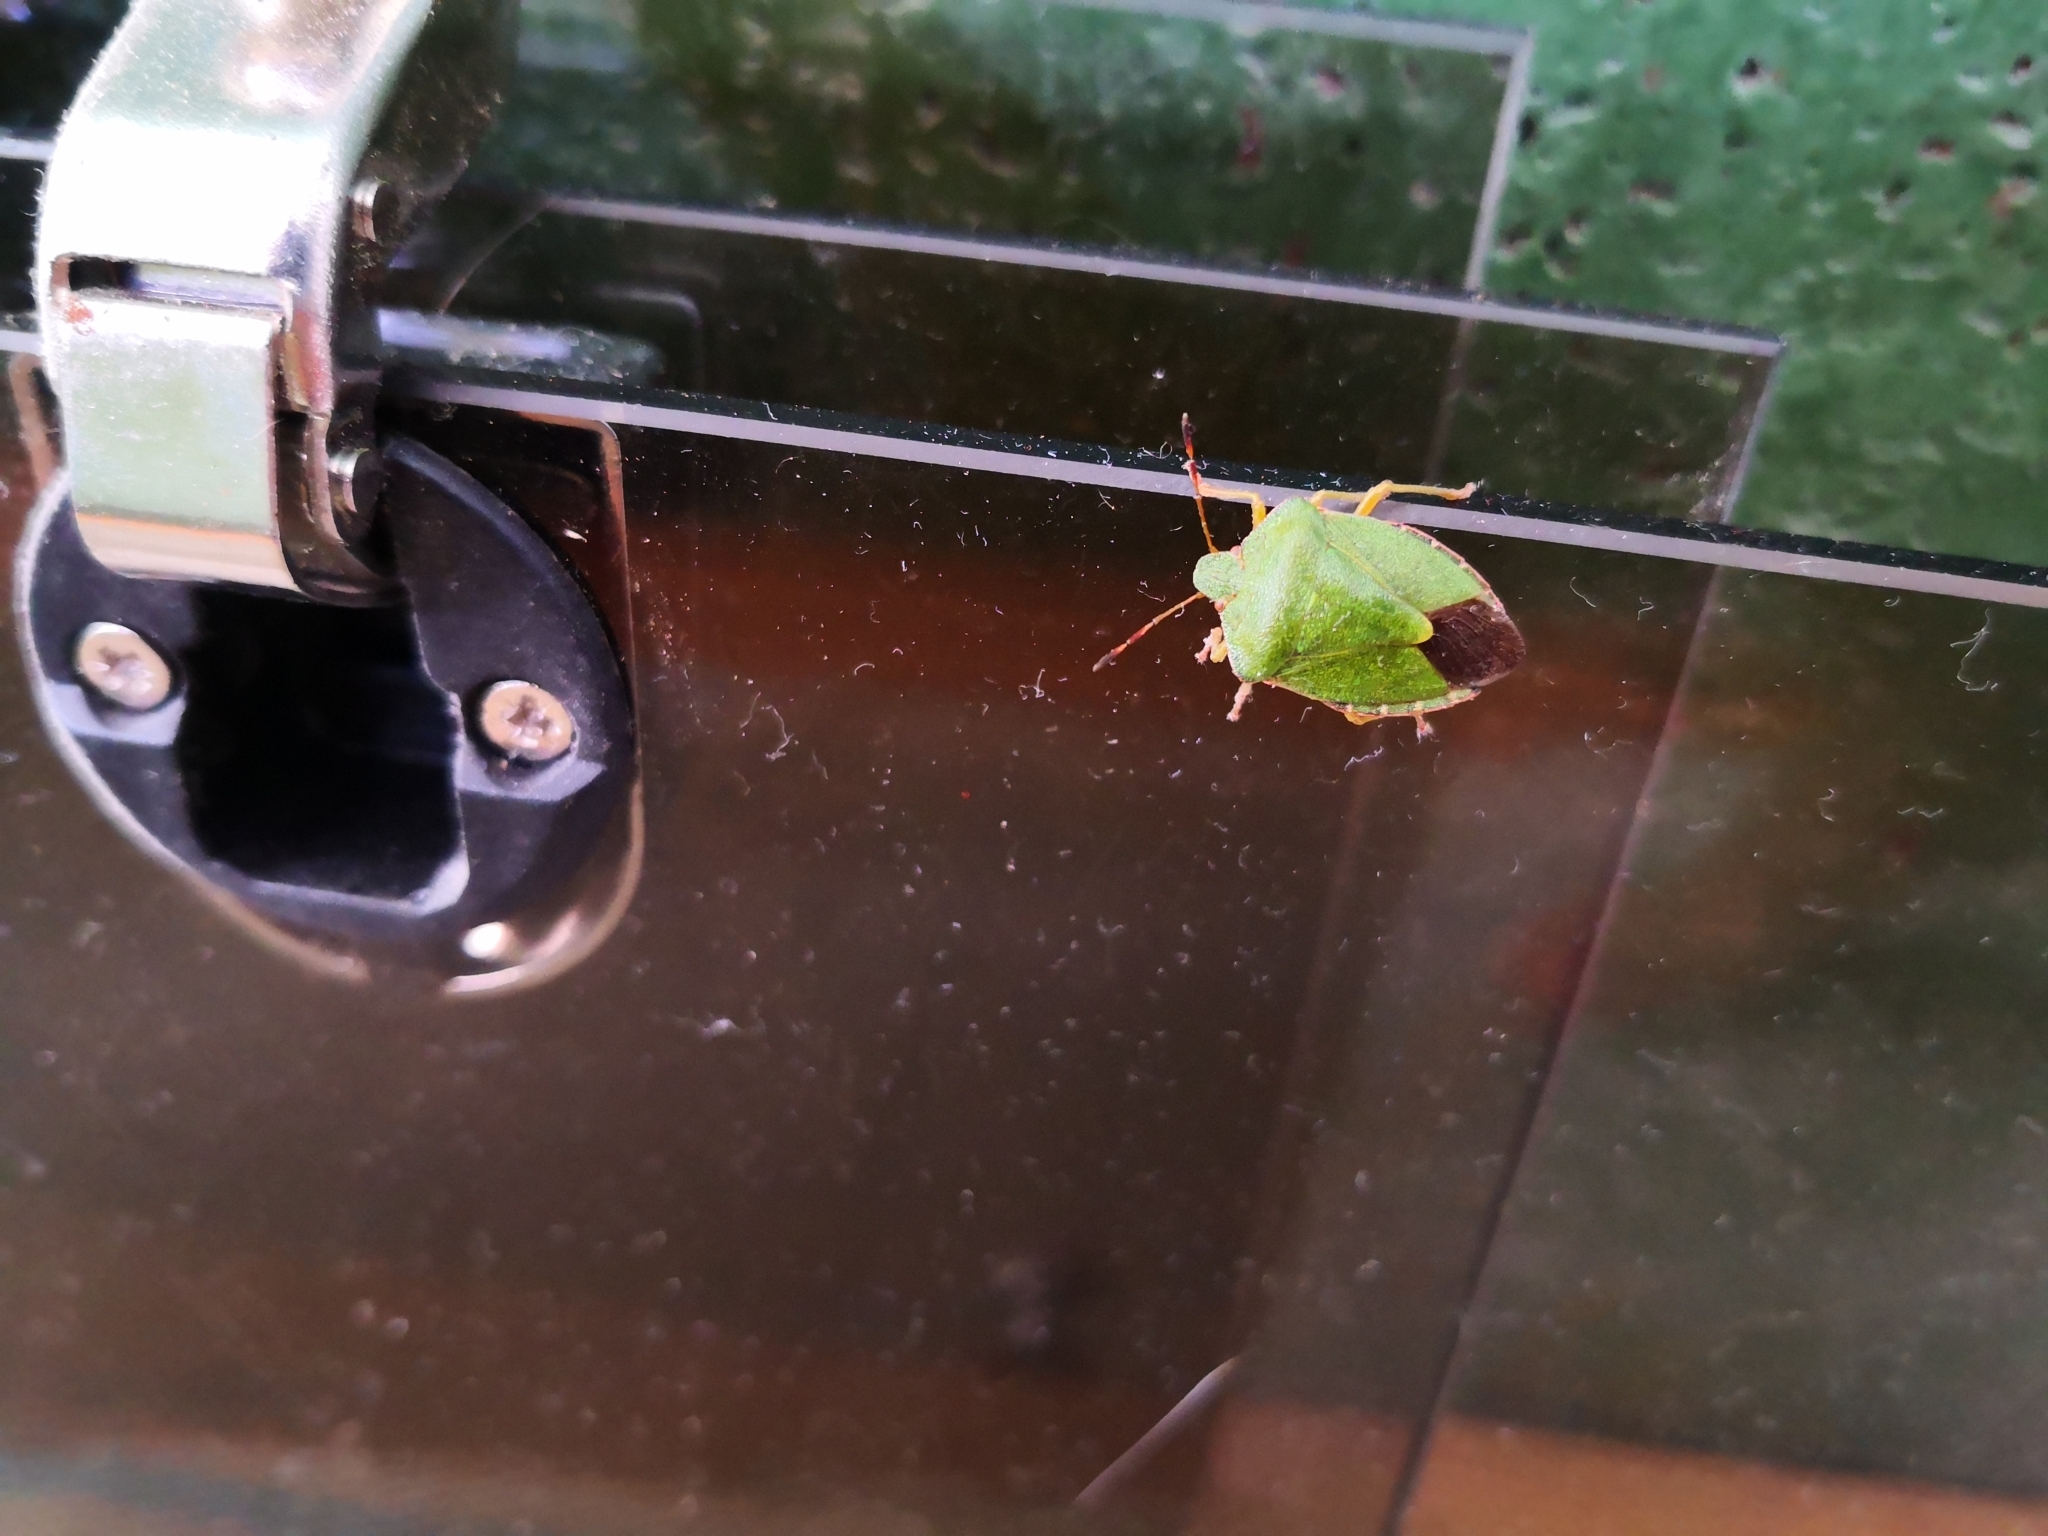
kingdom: Animalia
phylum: Arthropoda
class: Insecta
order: Hemiptera
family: Pentatomidae
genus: Palomena
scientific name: Palomena prasina
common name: Green shieldbug
